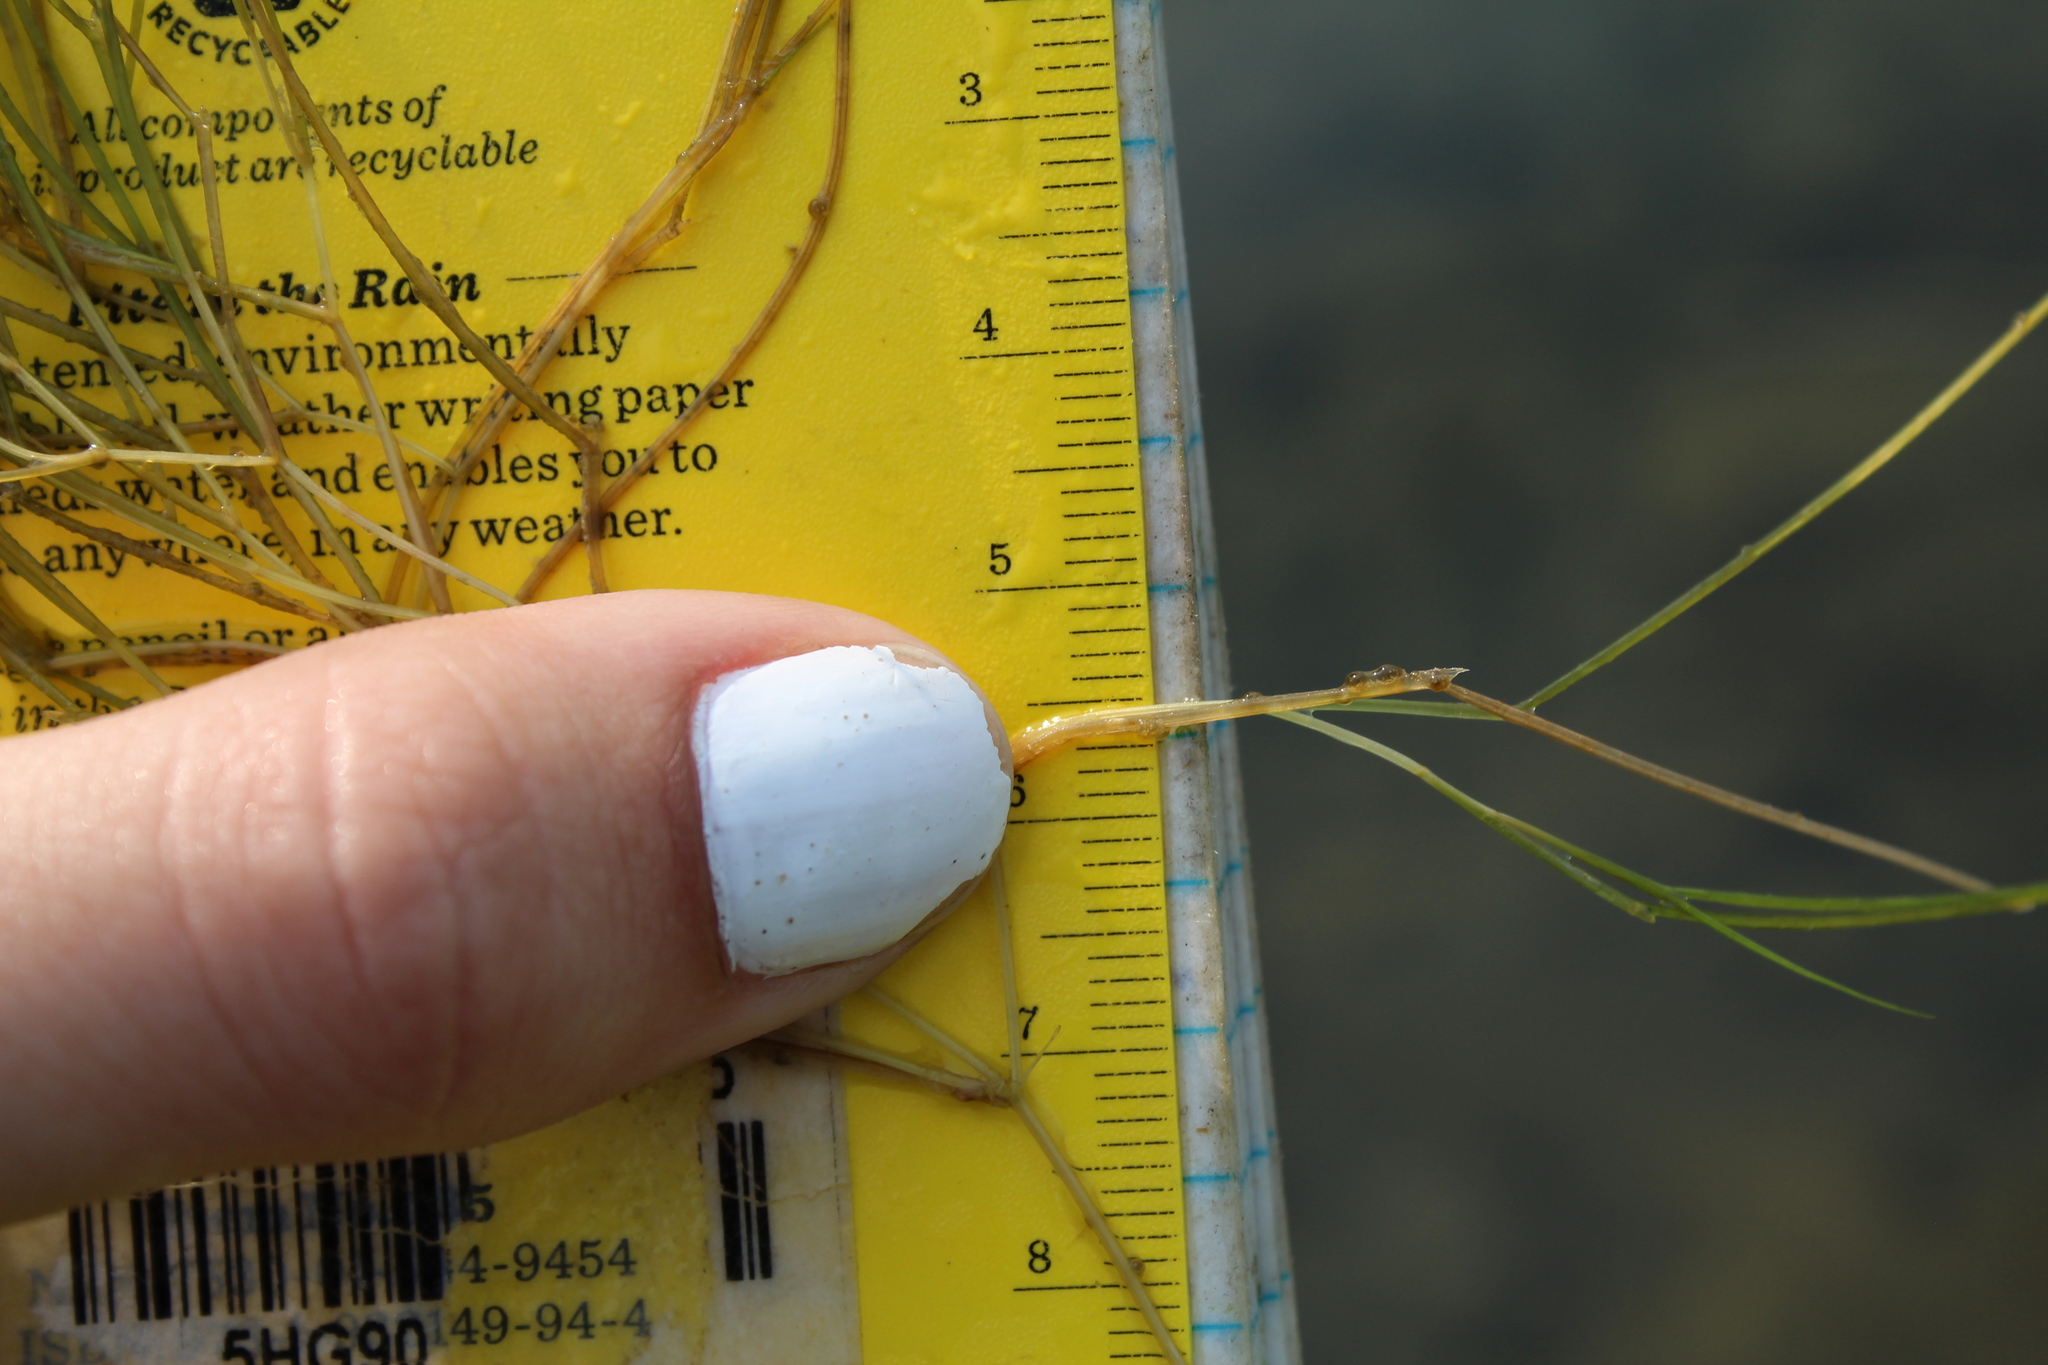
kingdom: Plantae
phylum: Tracheophyta
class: Liliopsida
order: Alismatales
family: Potamogetonaceae
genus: Stuckenia
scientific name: Stuckenia pectinata
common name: Sago pondweed
